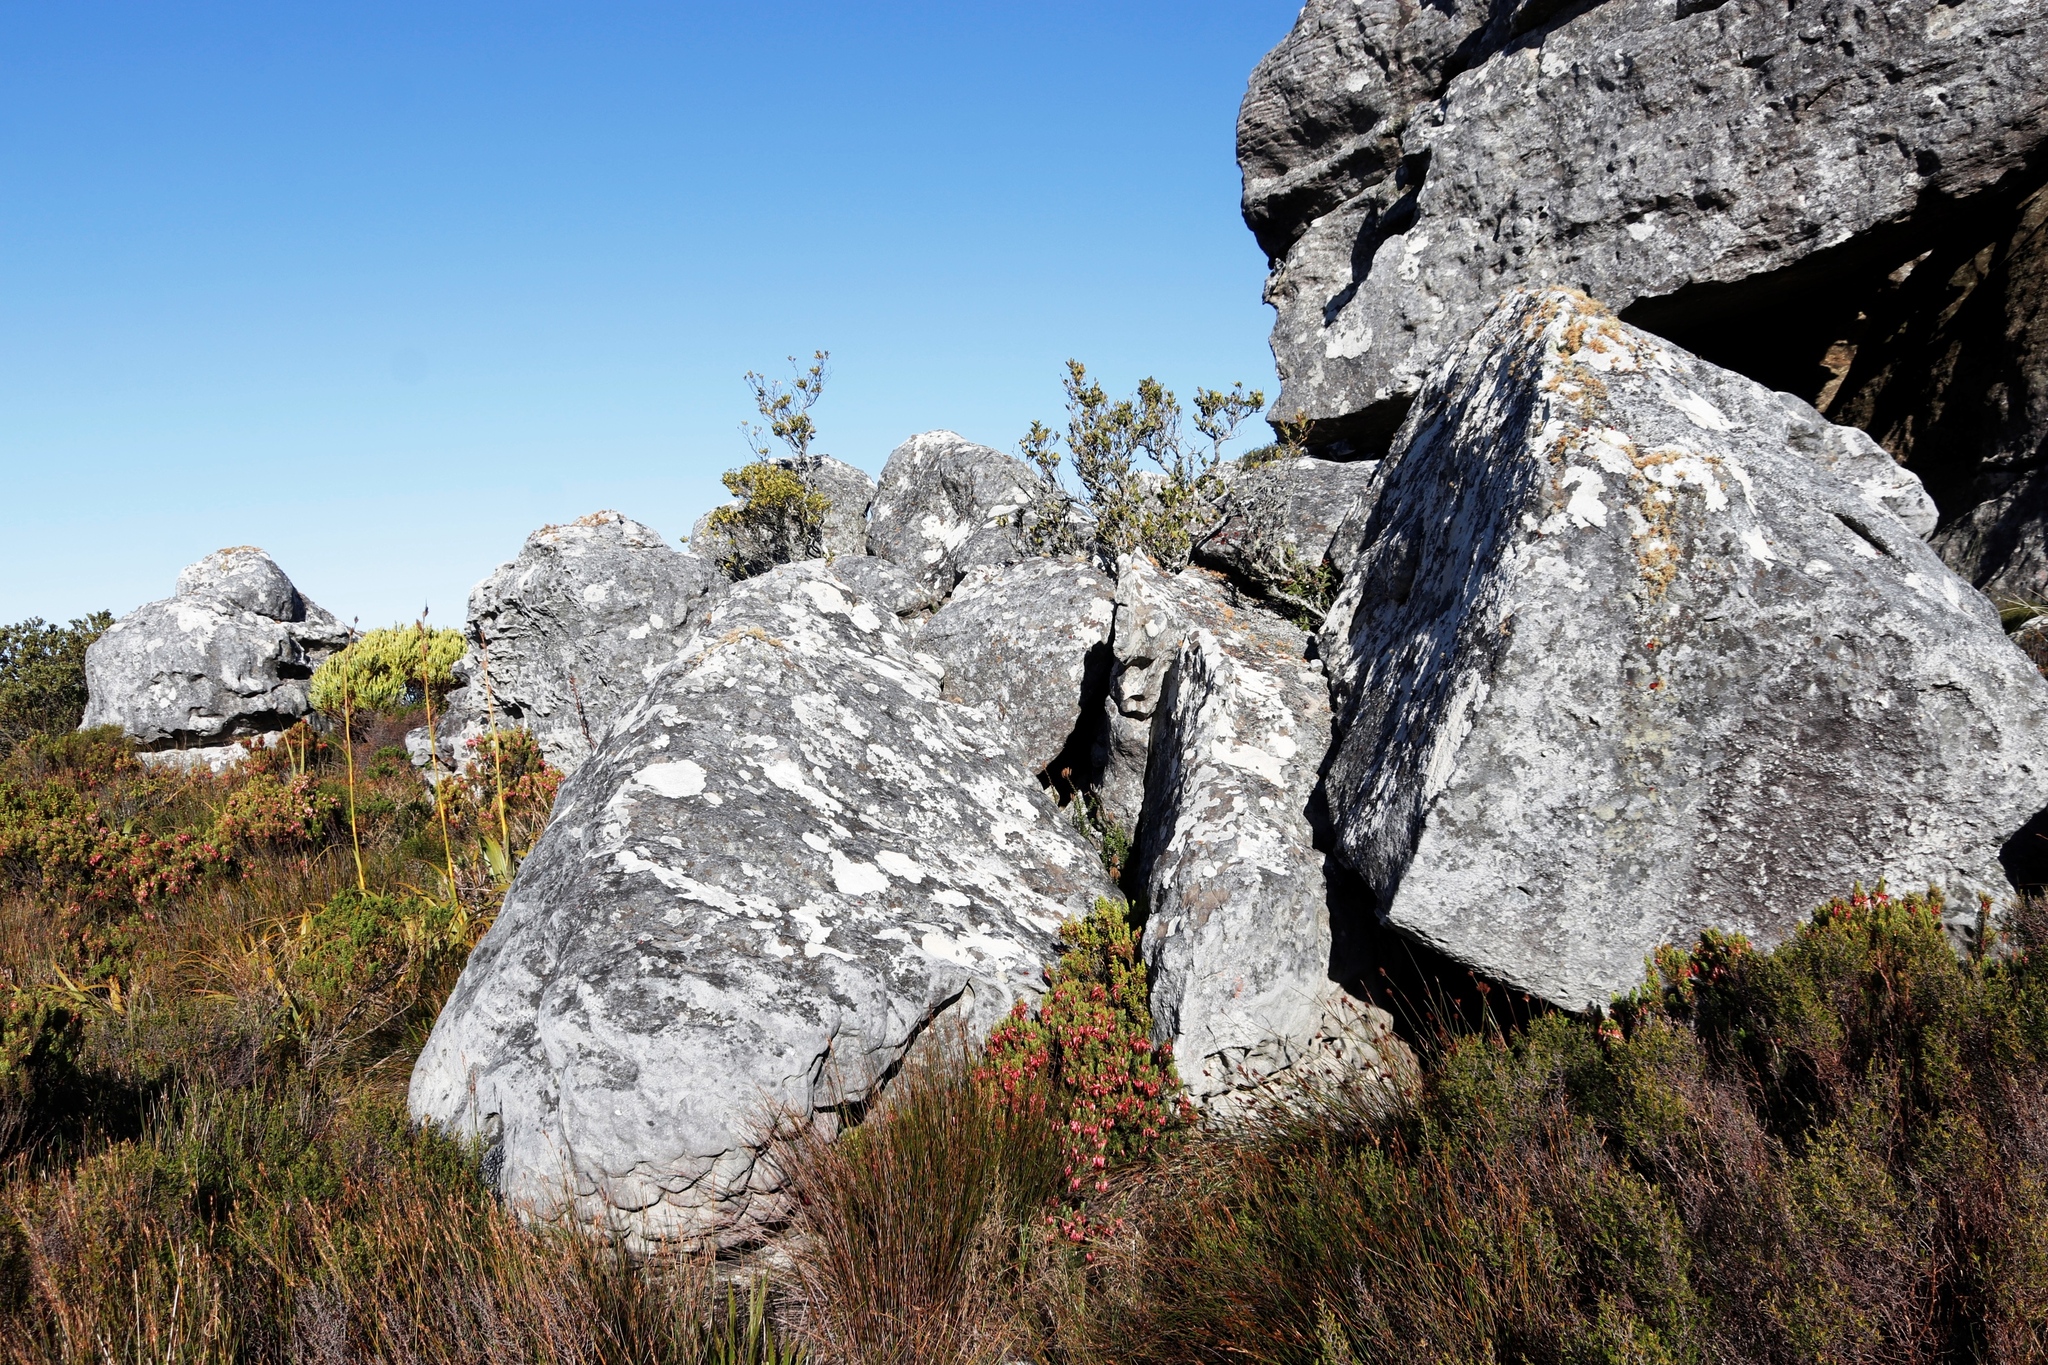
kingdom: Plantae
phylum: Tracheophyta
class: Magnoliopsida
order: Ericales
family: Ericaceae
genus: Erica
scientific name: Erica plukenetii
